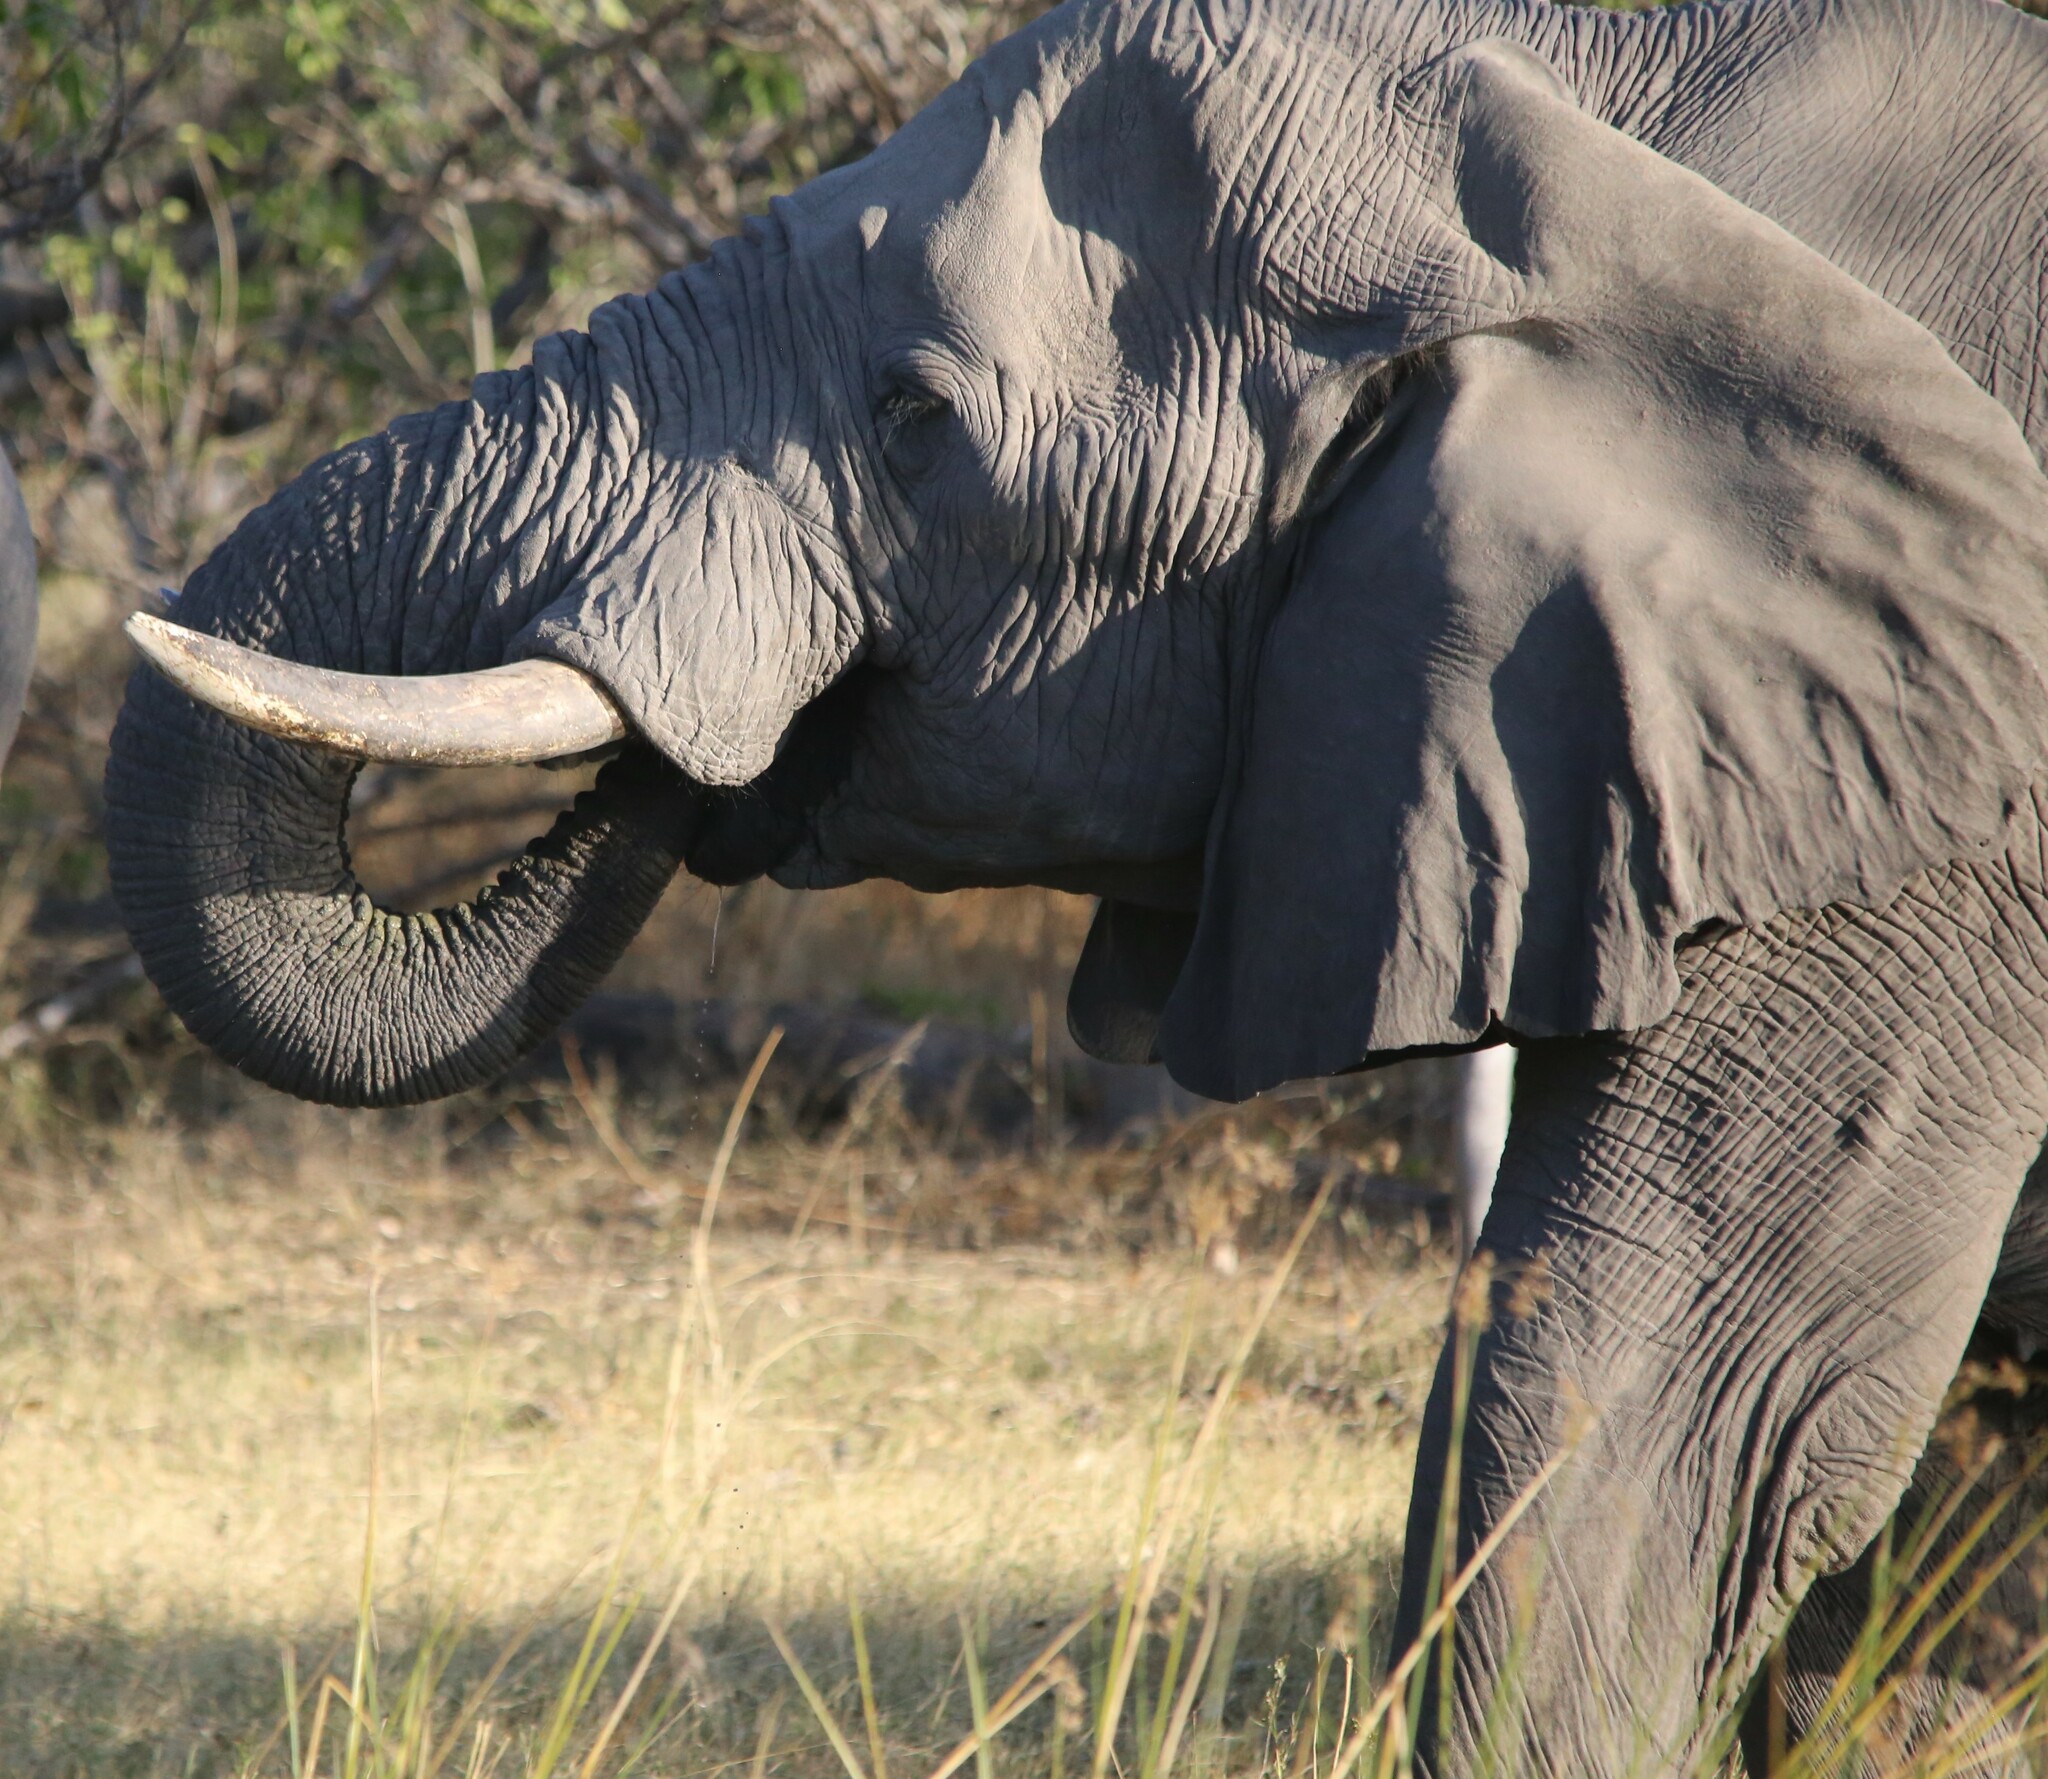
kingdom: Animalia
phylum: Chordata
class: Mammalia
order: Proboscidea
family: Elephantidae
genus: Loxodonta
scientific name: Loxodonta africana
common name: African elephant
